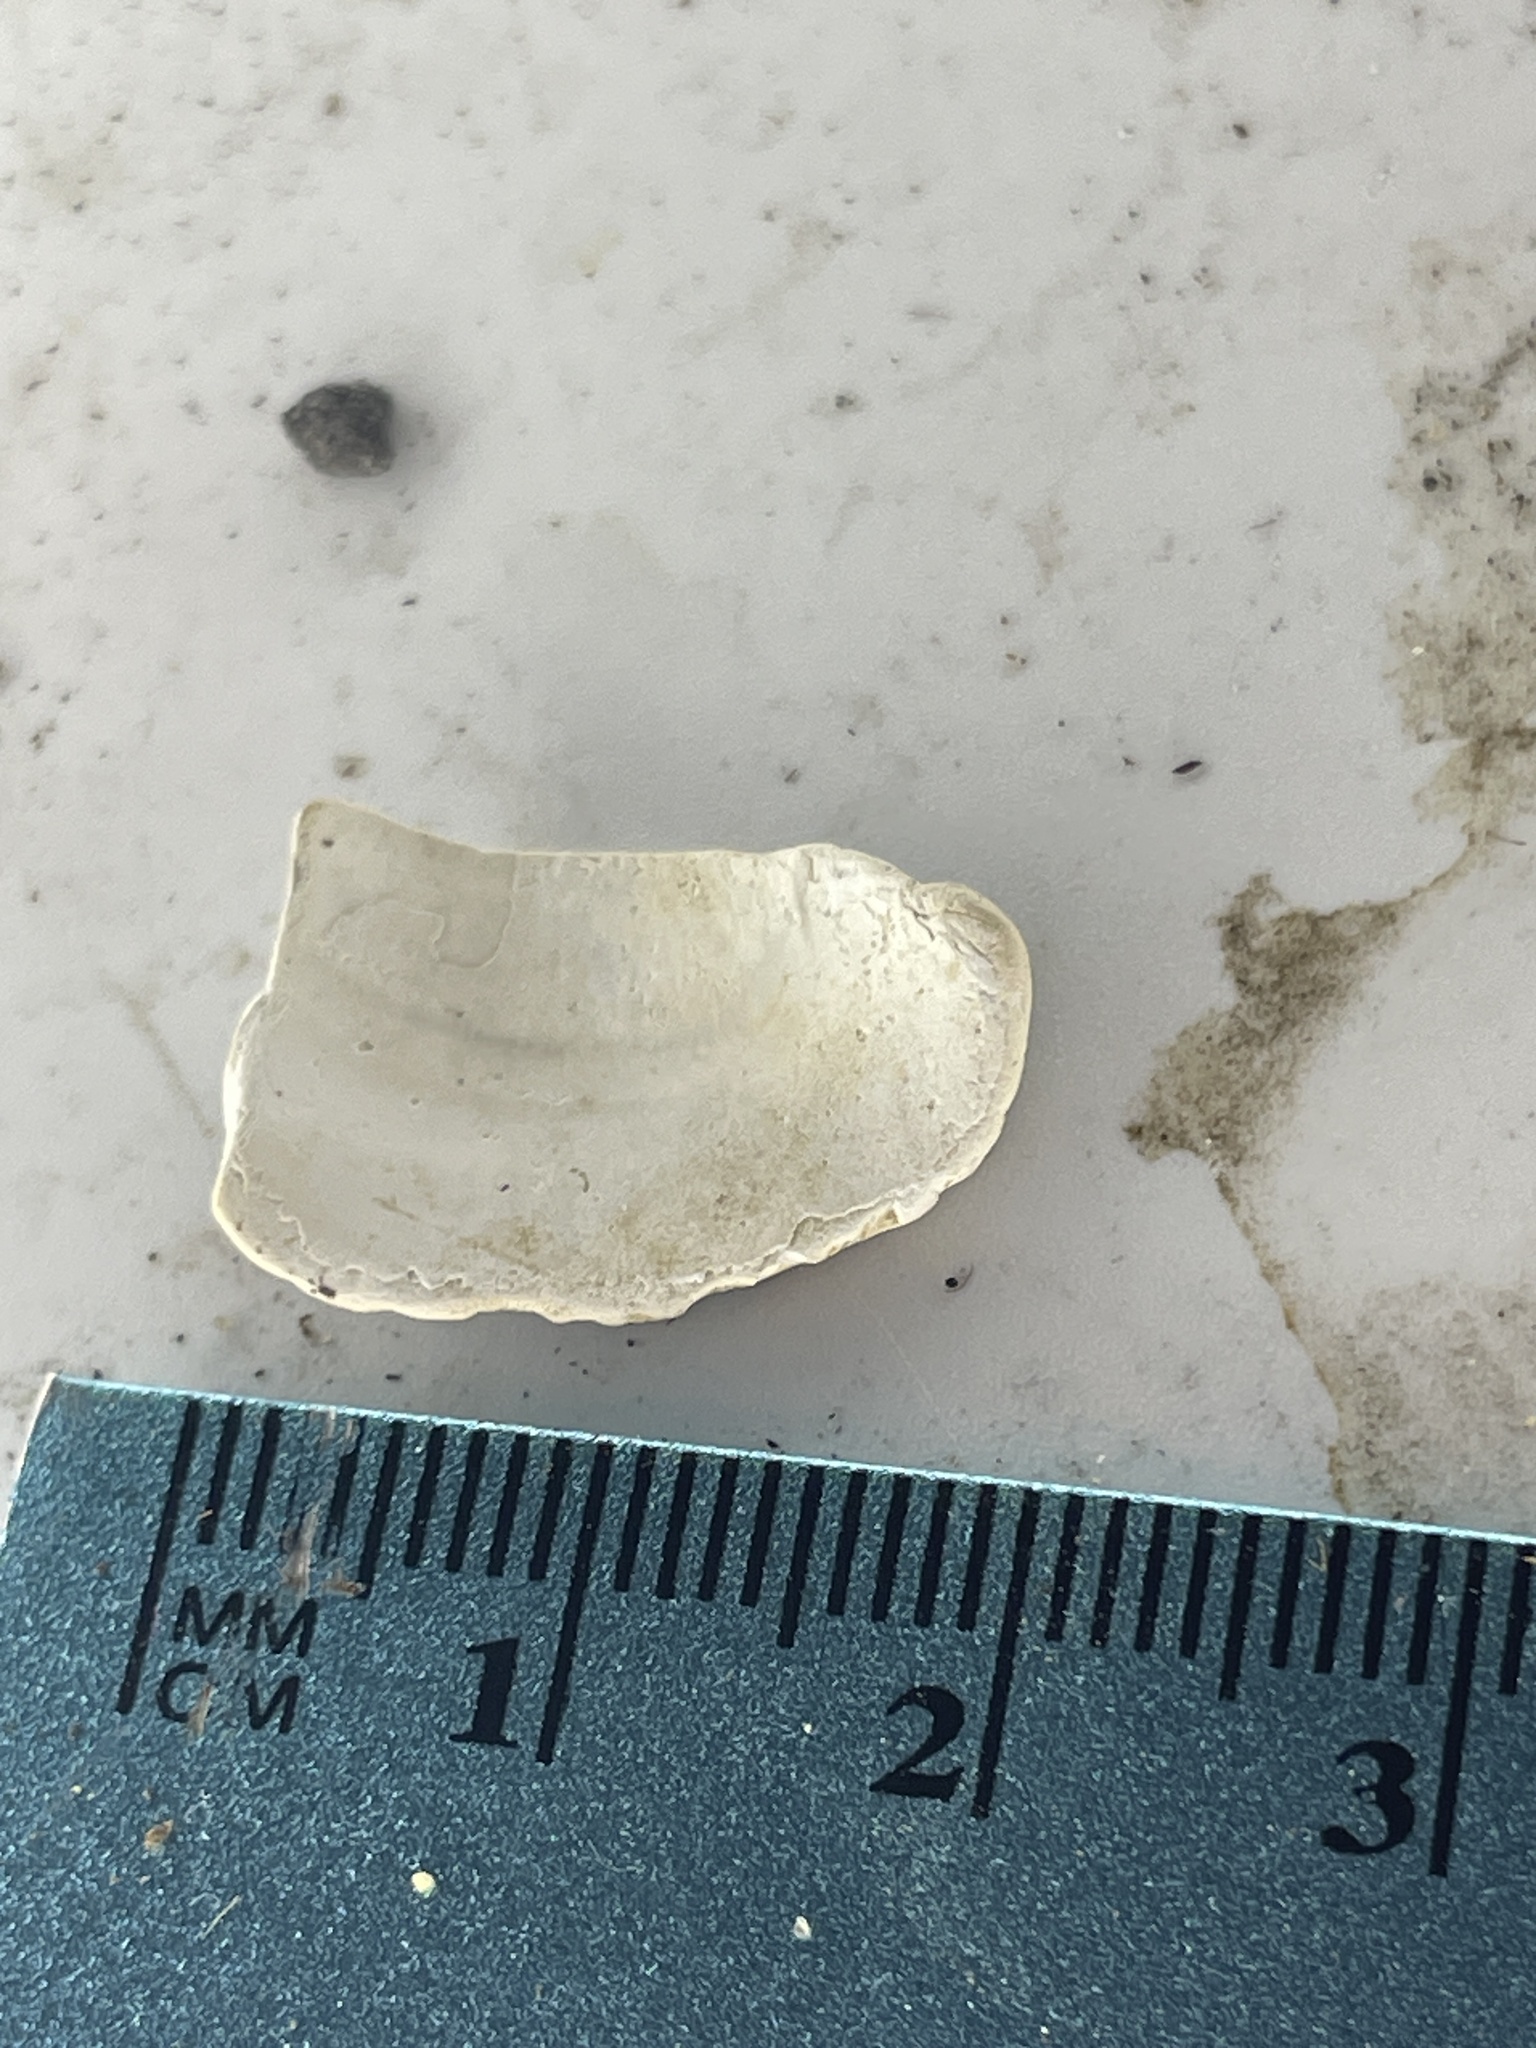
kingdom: Animalia
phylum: Mollusca
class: Bivalvia
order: Venerida
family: Cyrenidae
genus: Corbicula
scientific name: Corbicula fluminea
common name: Asian clam
